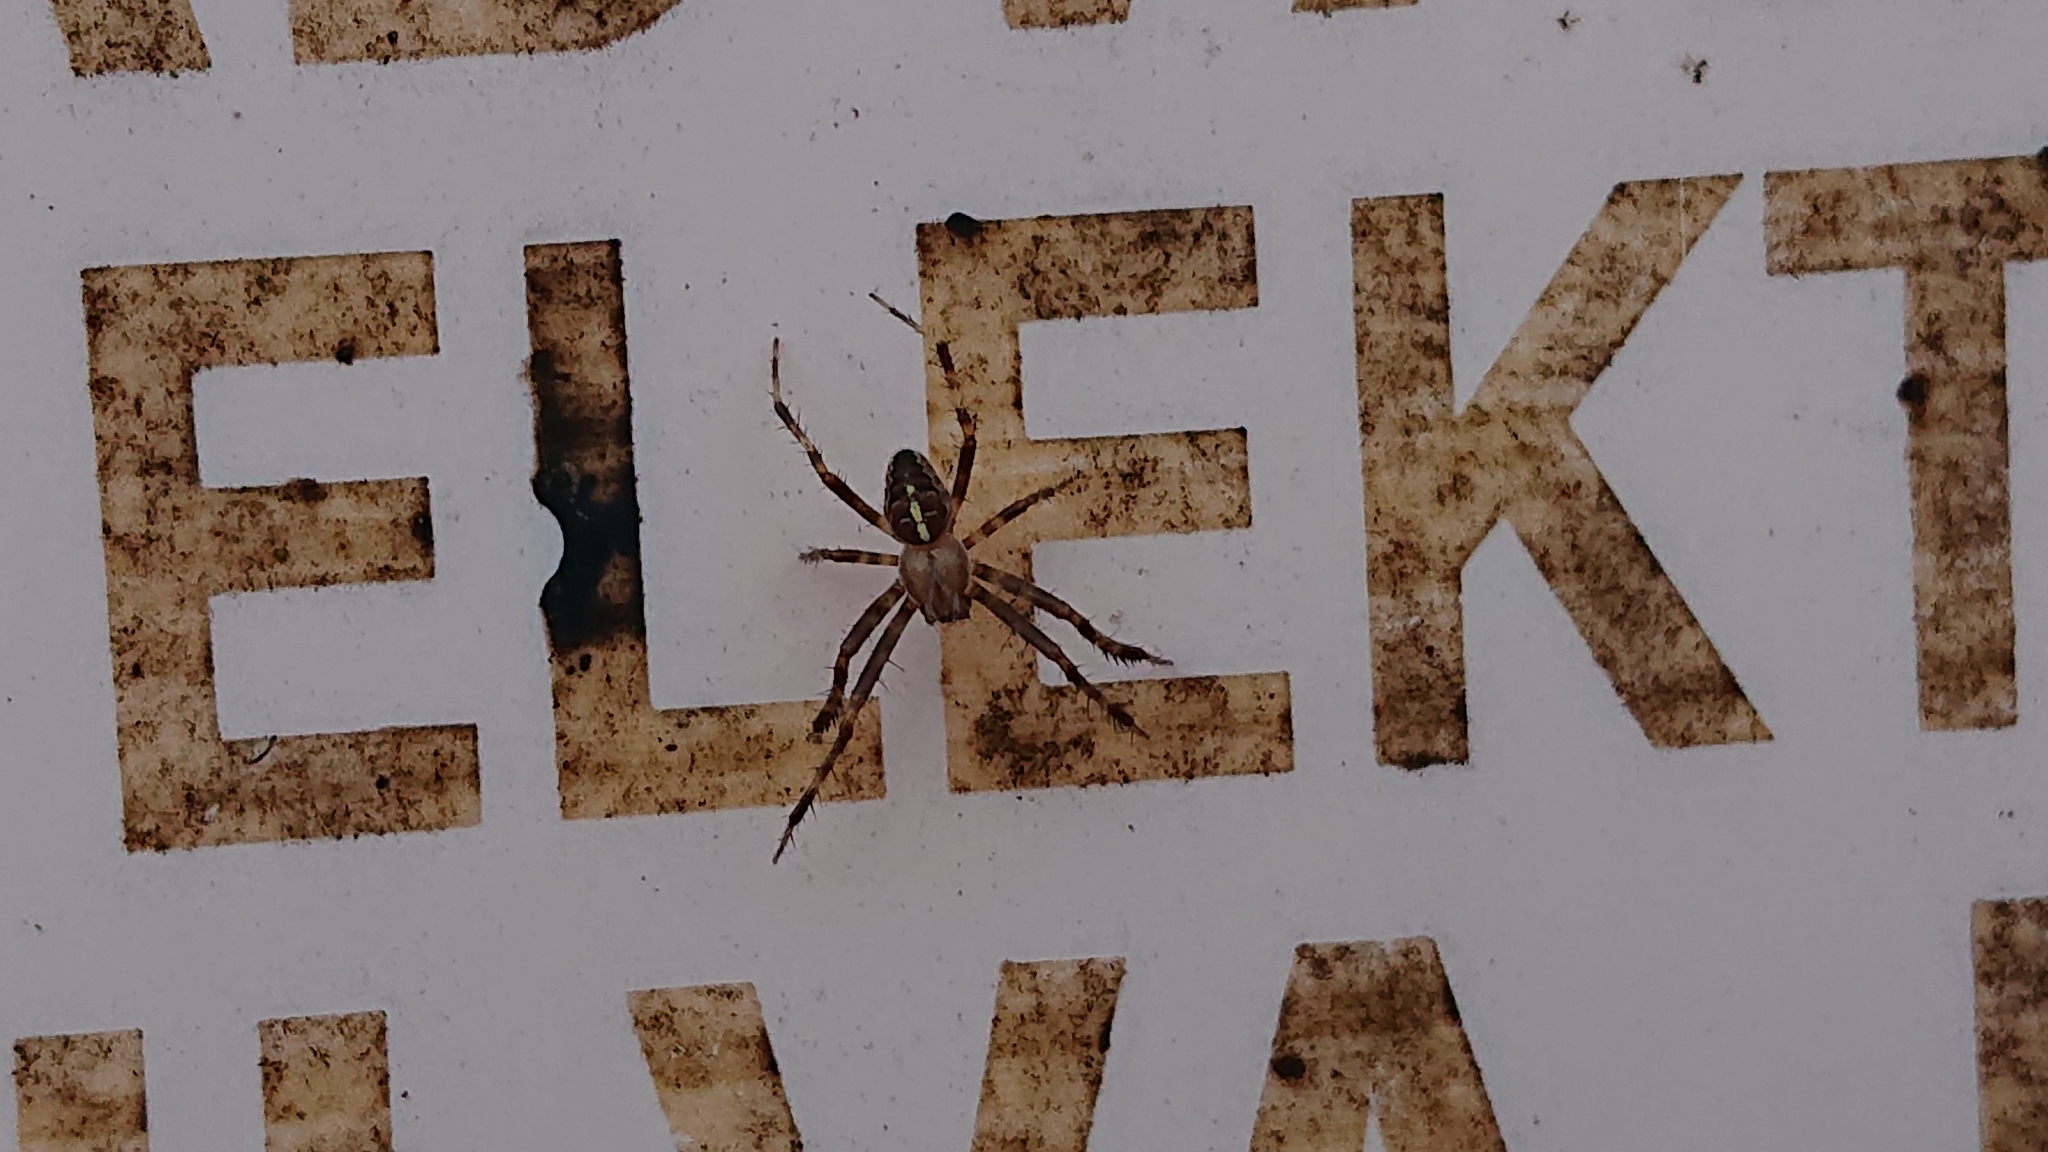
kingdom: Animalia
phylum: Arthropoda
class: Arachnida
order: Araneae
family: Araneidae
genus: Araneus
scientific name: Araneus diadematus
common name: Cross orbweaver
